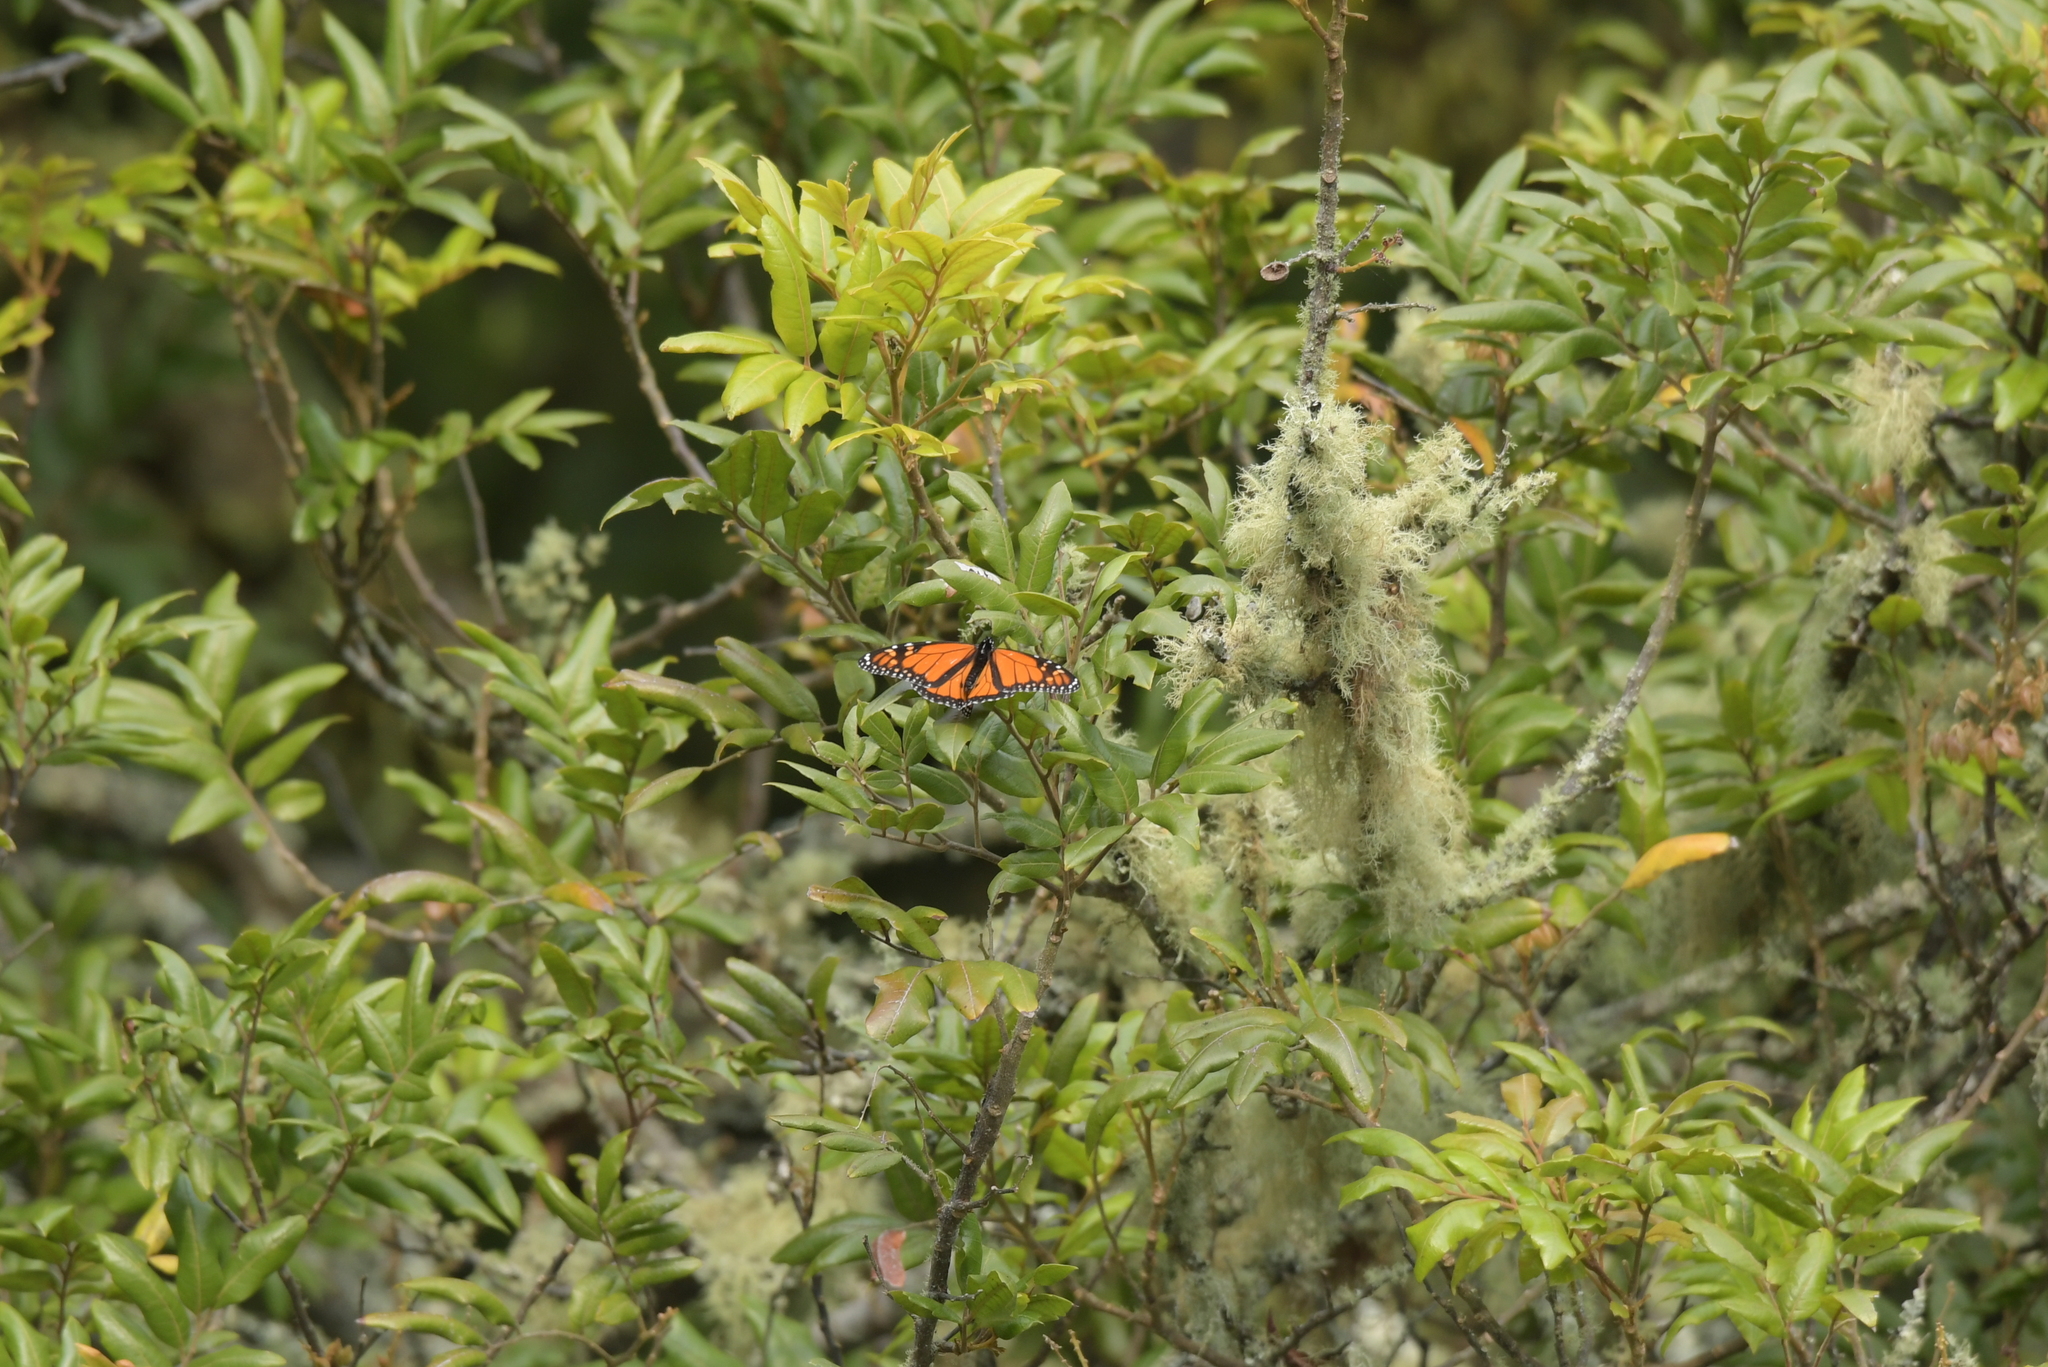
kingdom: Animalia
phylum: Arthropoda
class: Insecta
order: Lepidoptera
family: Nymphalidae
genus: Danaus
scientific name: Danaus plexippus
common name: Monarch
